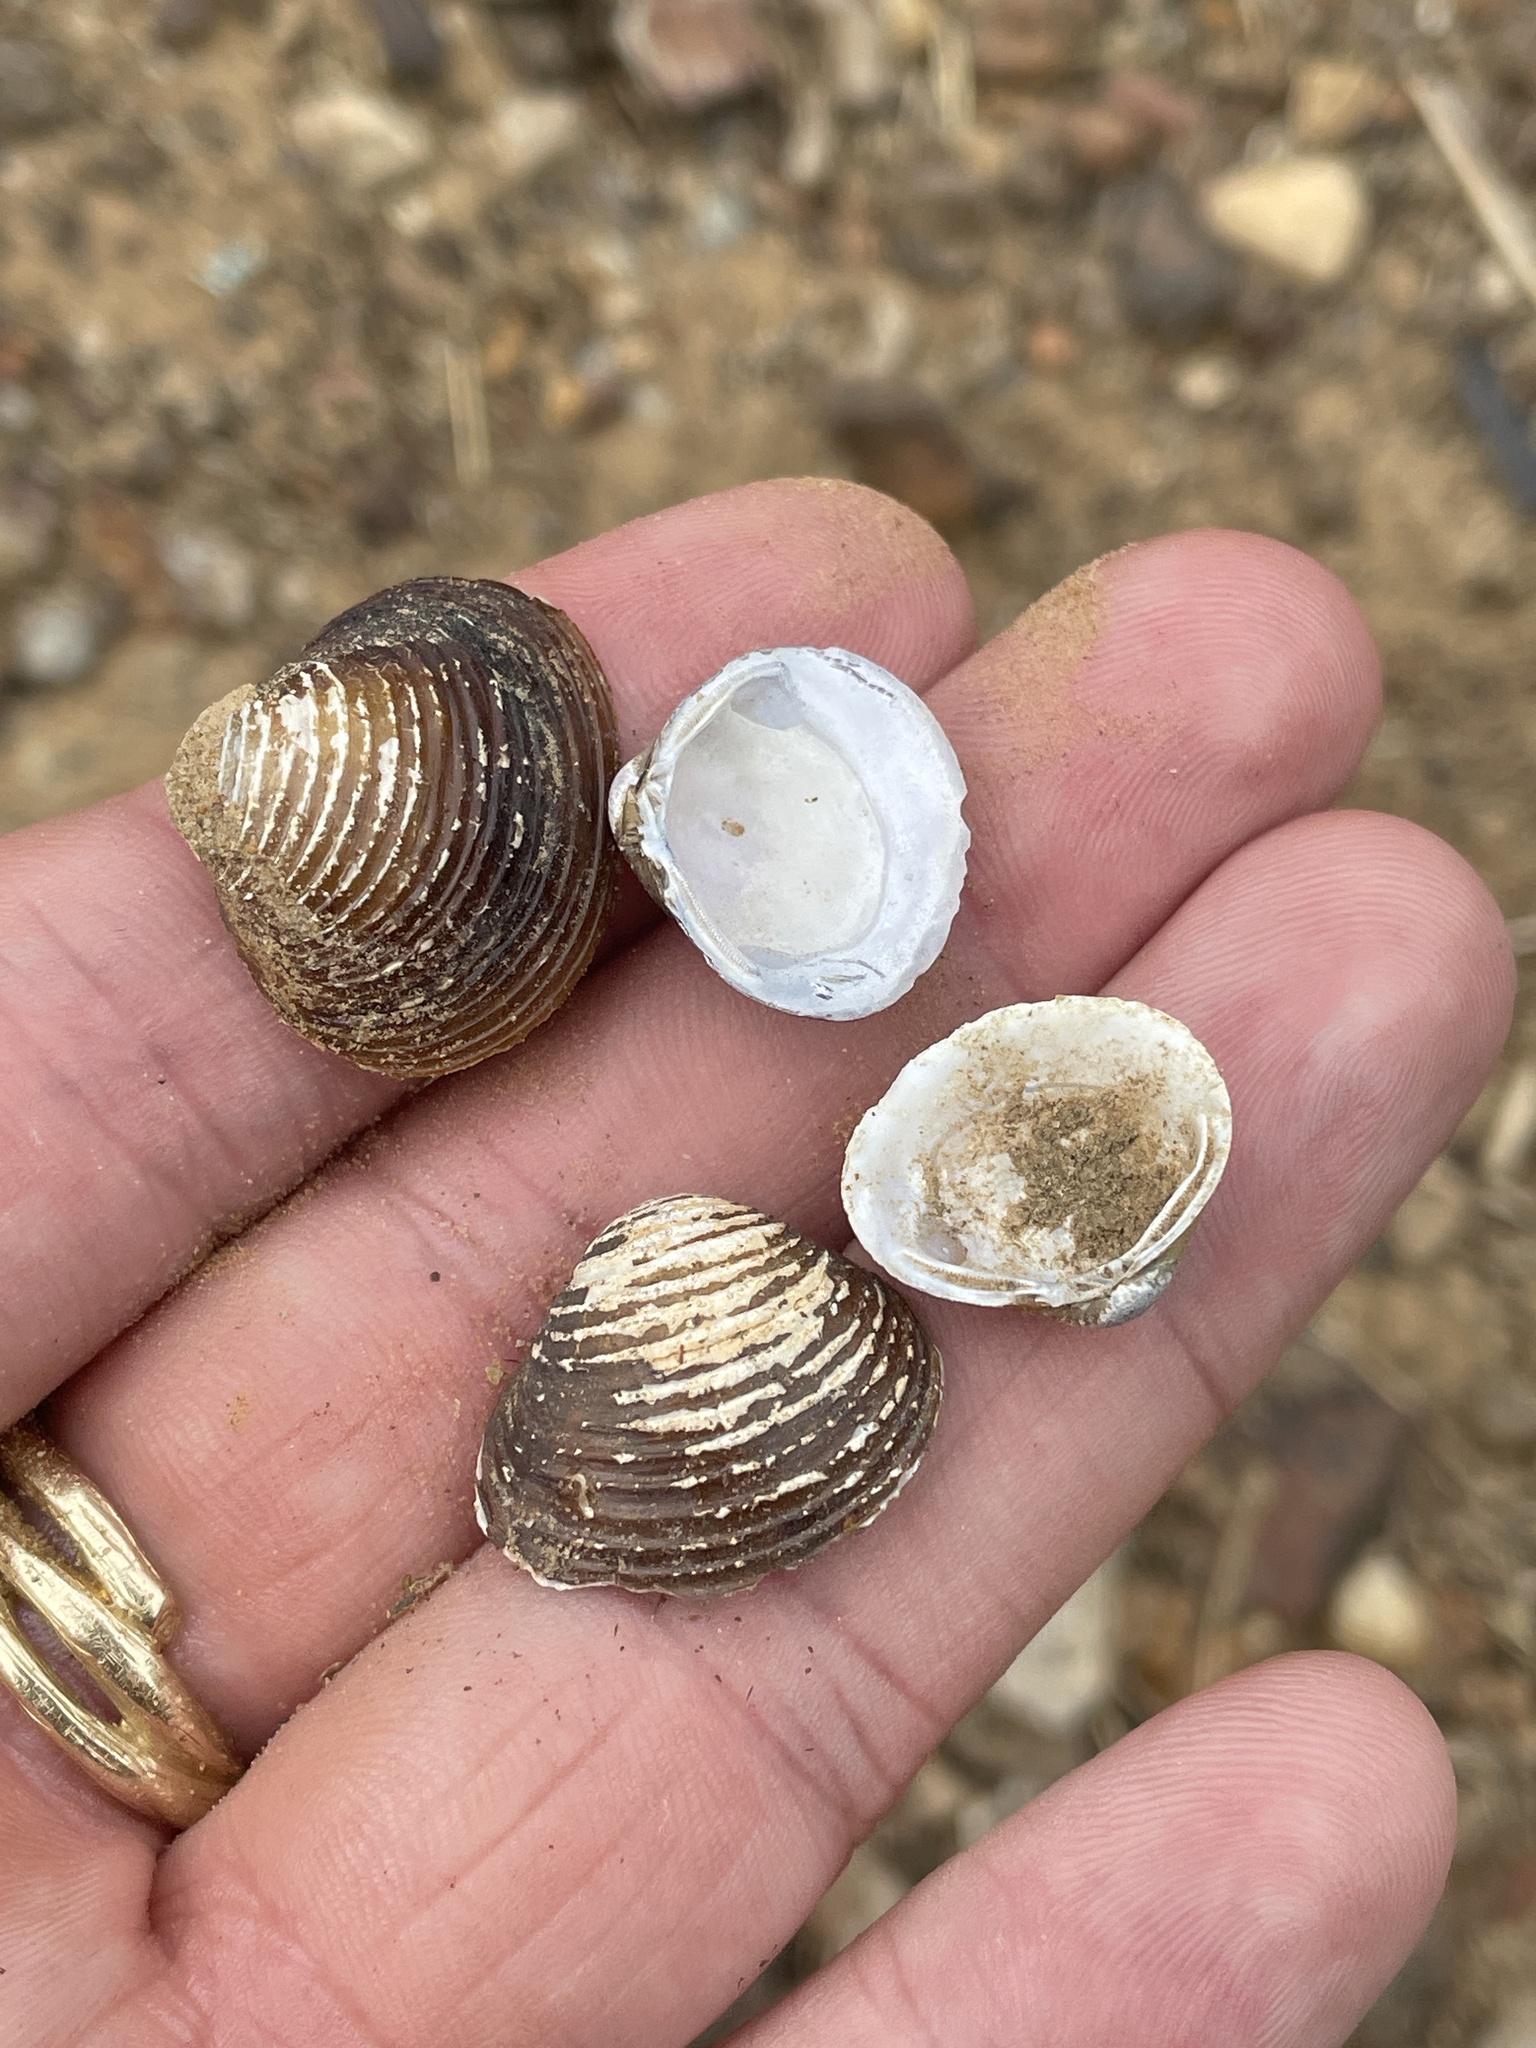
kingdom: Animalia
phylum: Mollusca
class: Bivalvia
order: Venerida
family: Cyrenidae
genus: Corbicula
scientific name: Corbicula fluminea
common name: Asian clam
